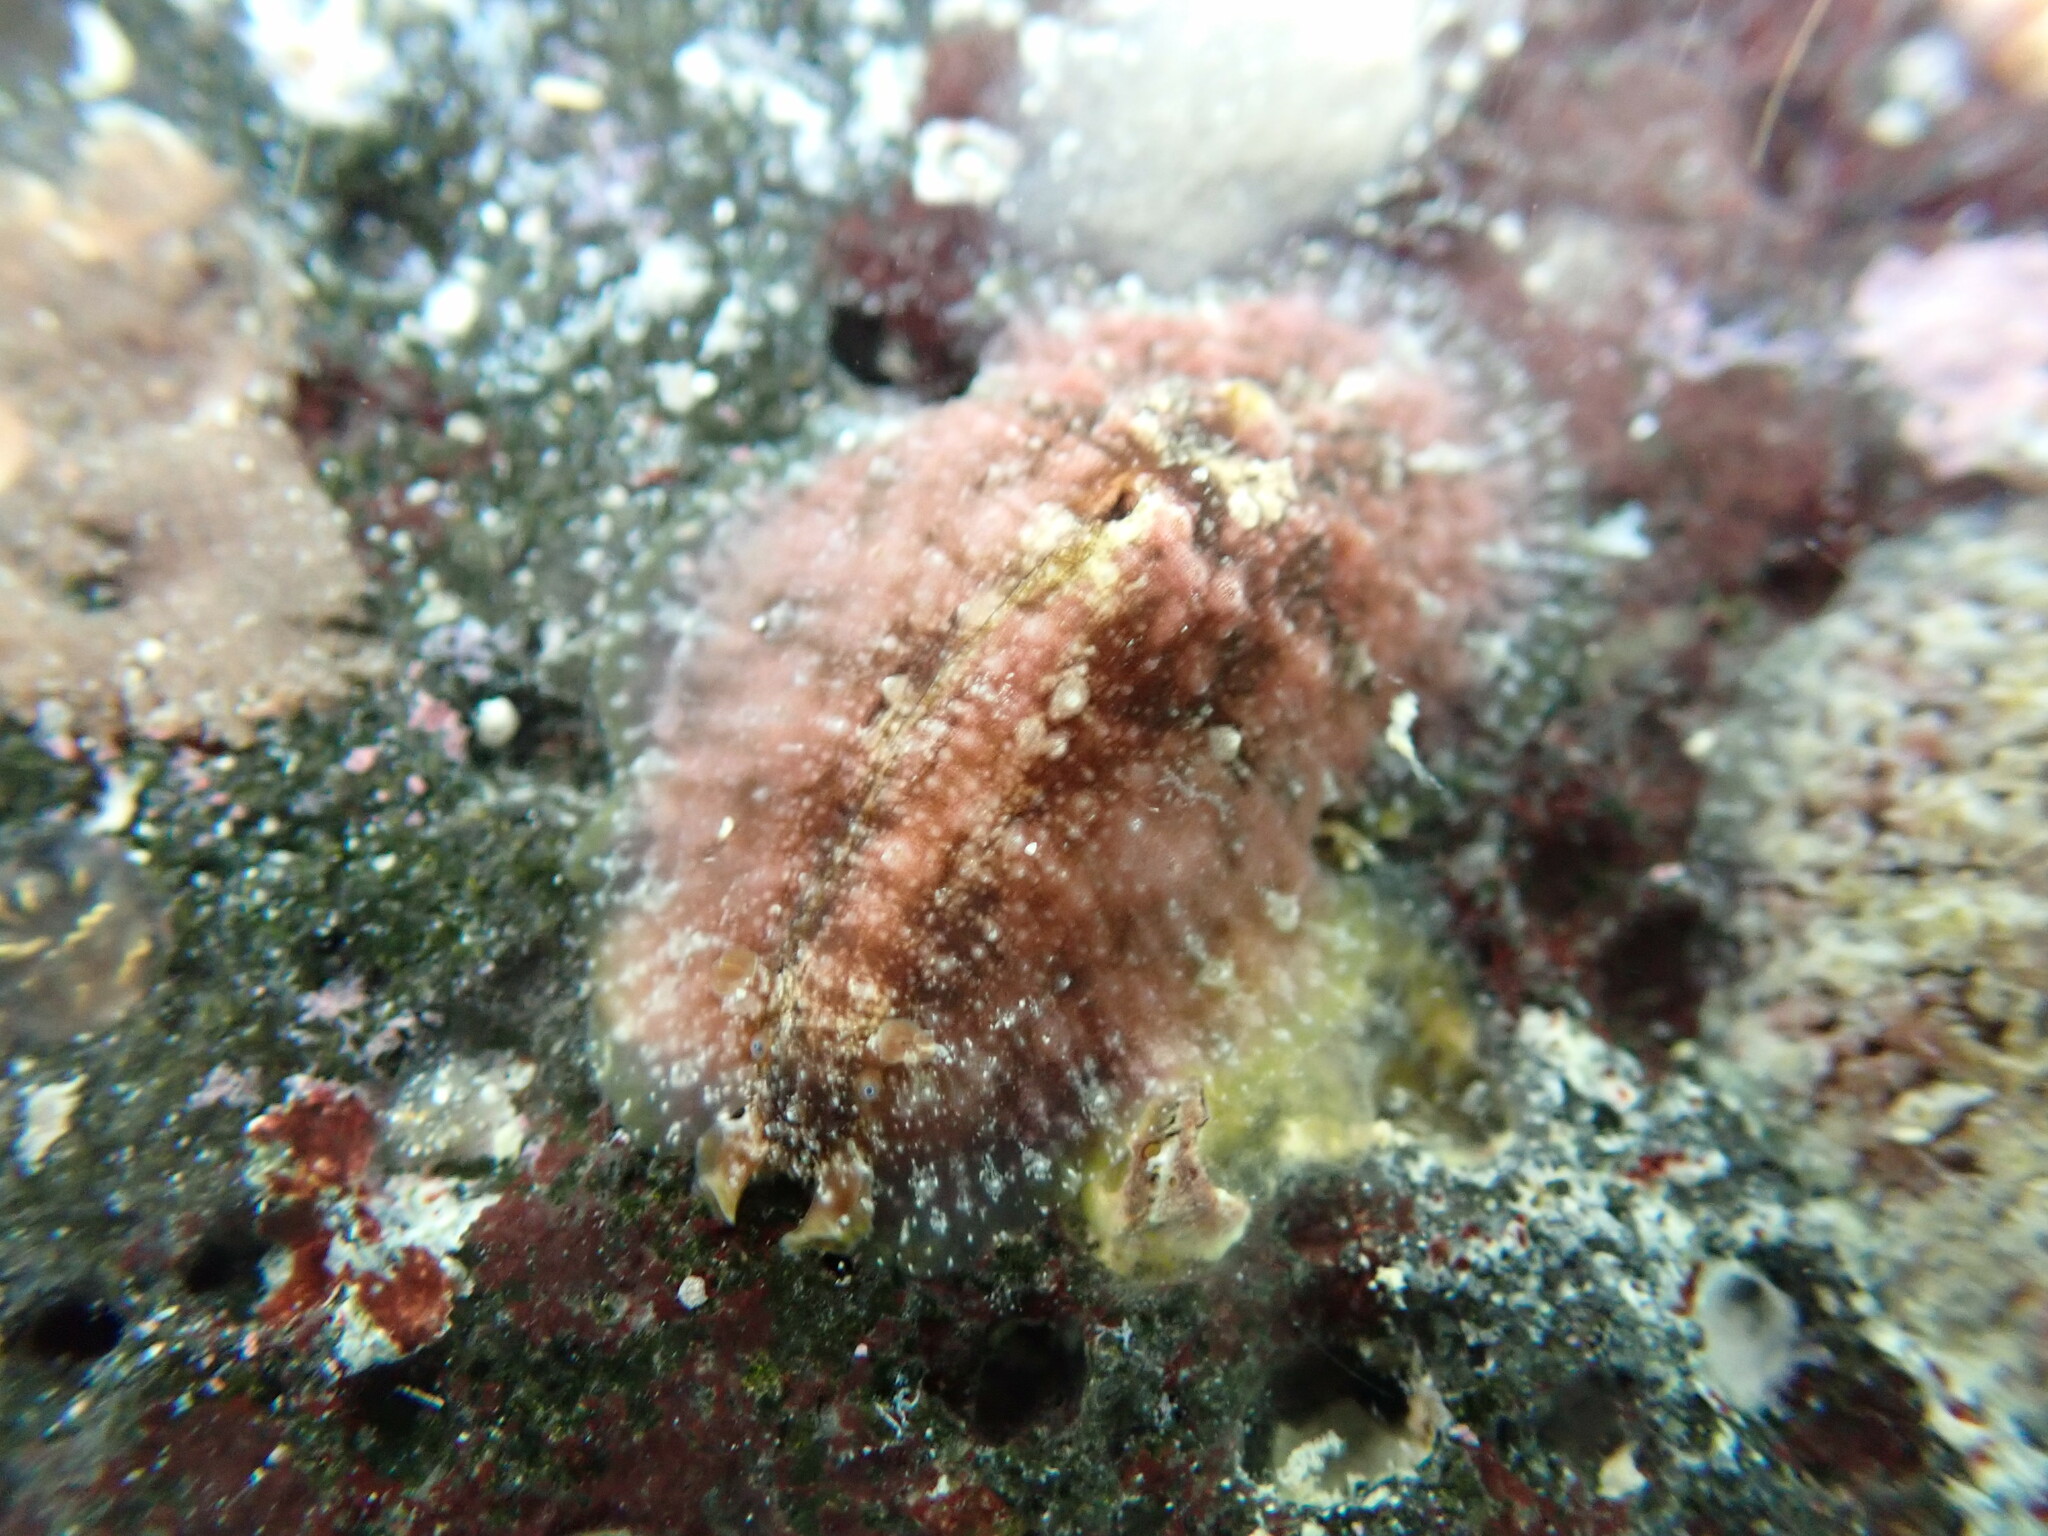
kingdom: Animalia
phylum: Mollusca
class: Gastropoda
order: Aplysiida
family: Aplysiidae
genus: Dolabrifera
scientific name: Dolabrifera dolabrifera
